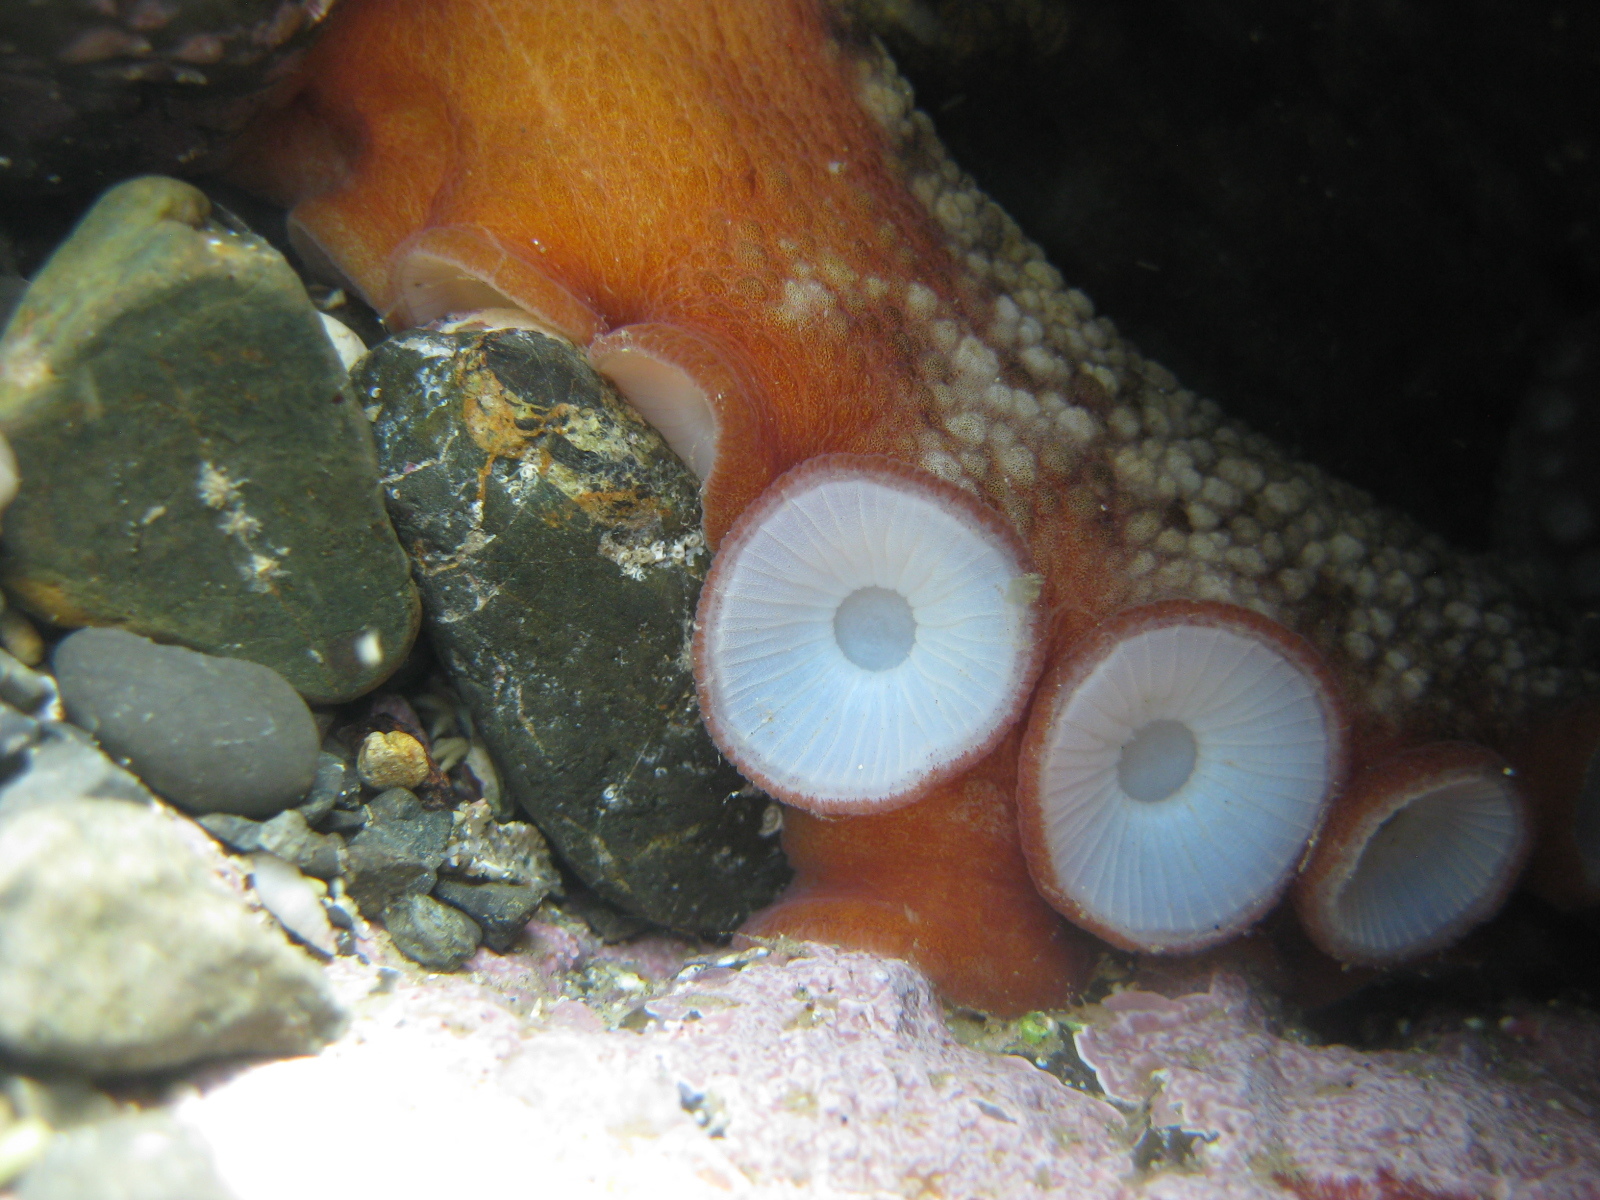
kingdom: Animalia
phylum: Mollusca
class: Cephalopoda
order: Octopoda
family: Octopodidae
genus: Octopus
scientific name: Octopus tetricus
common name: Sydney octopus
